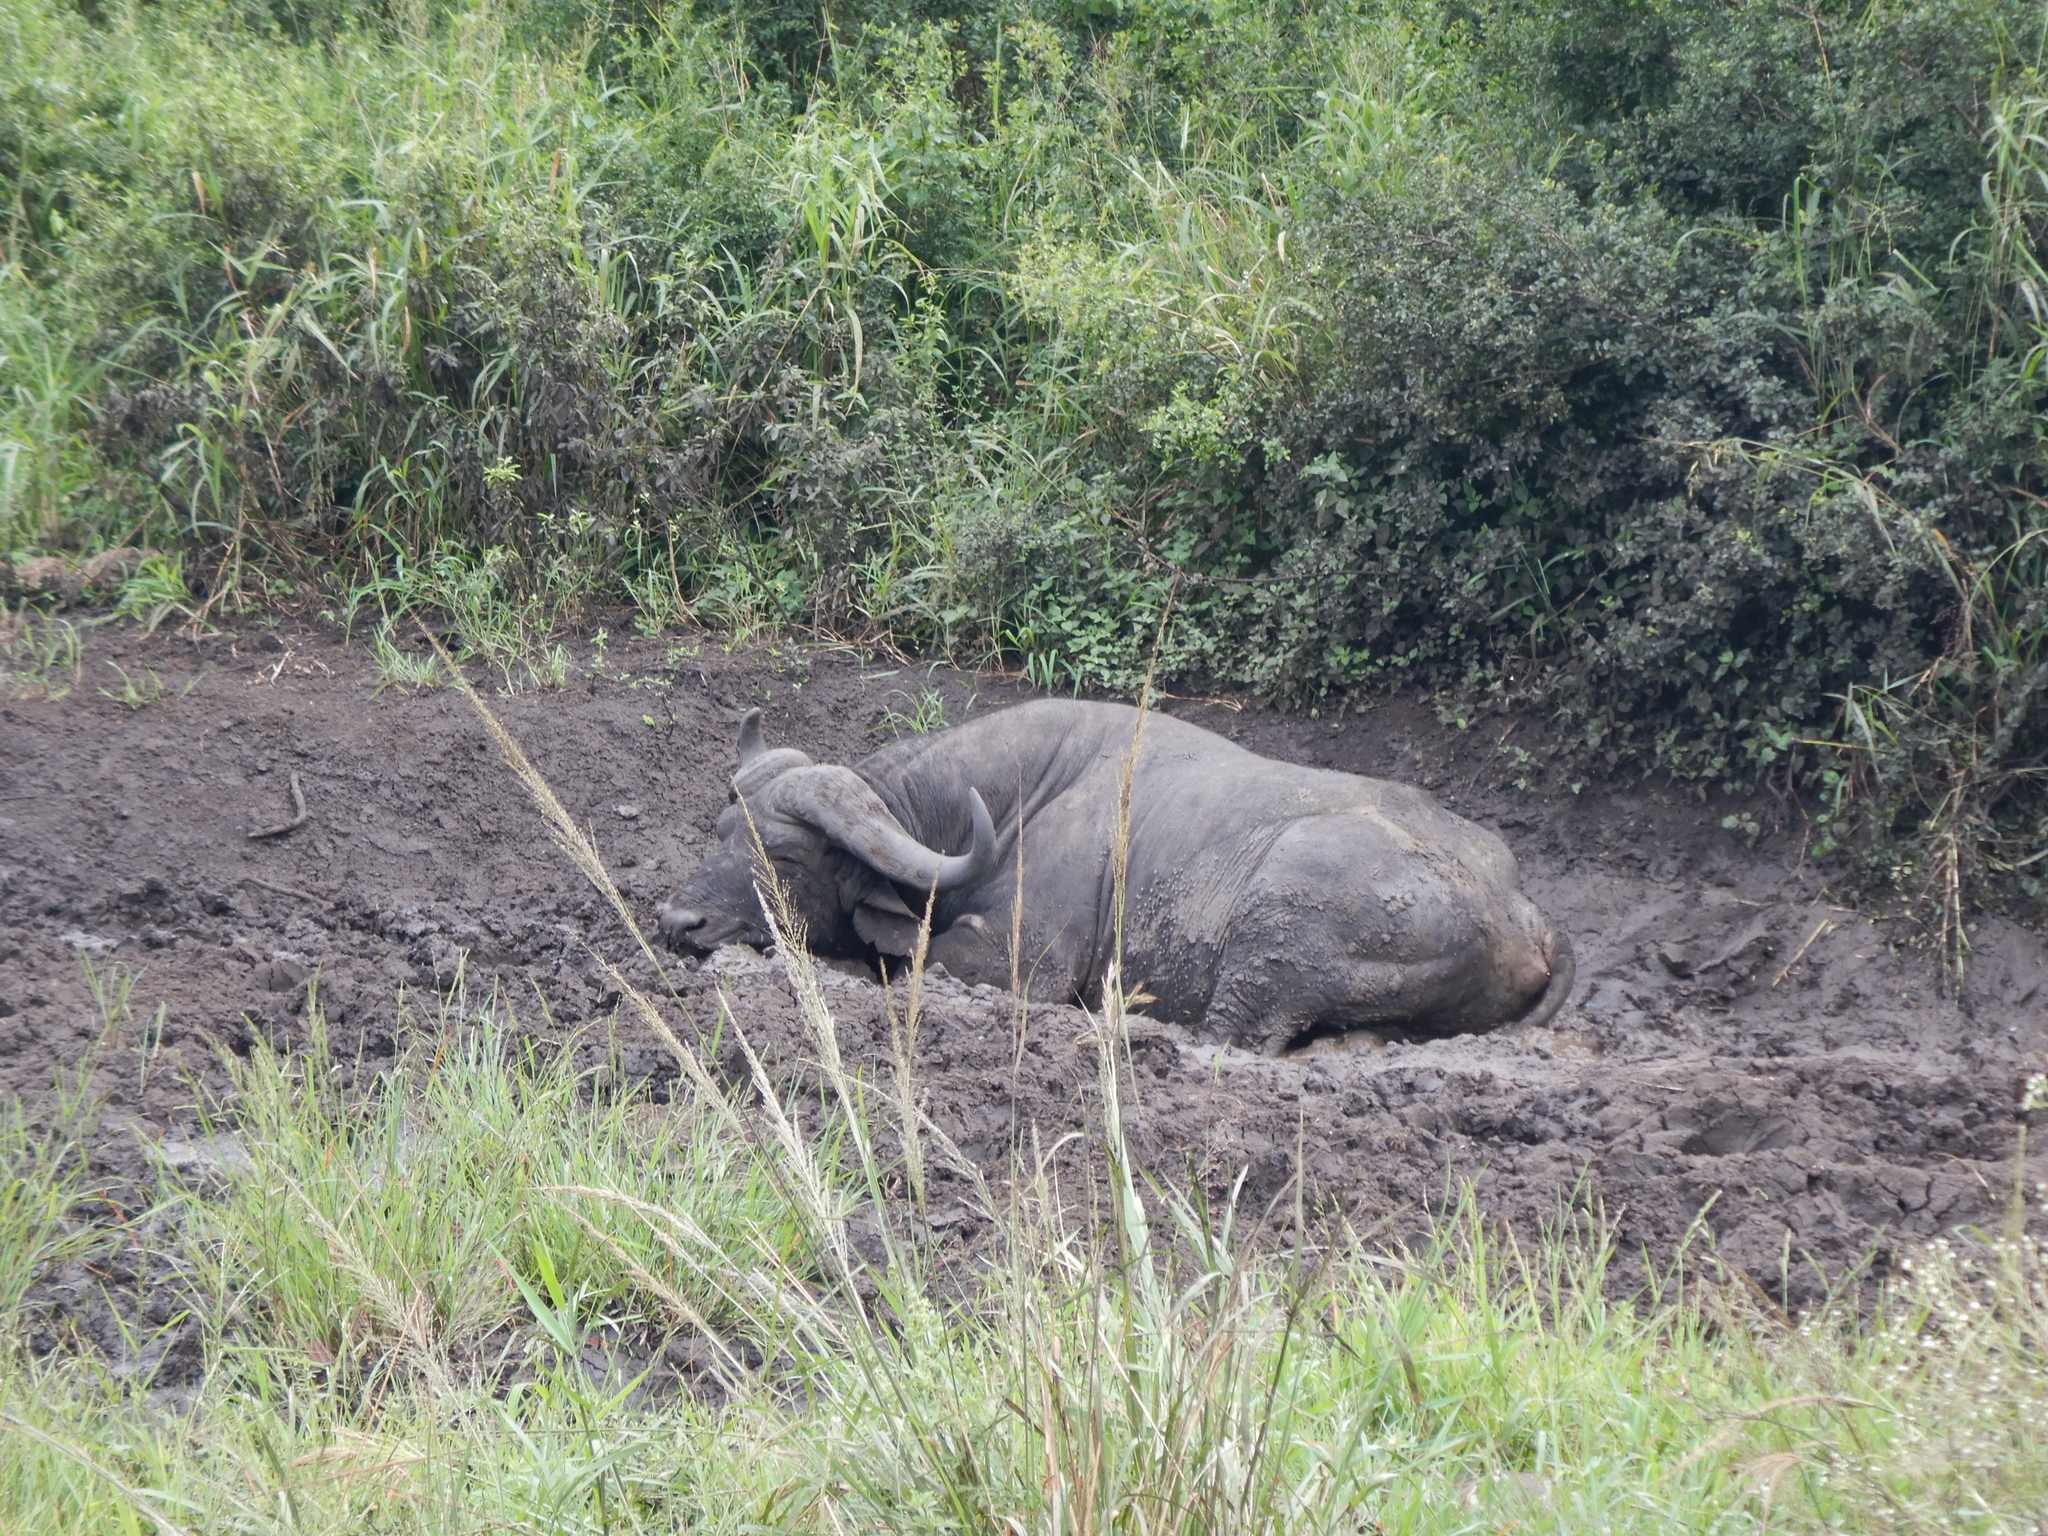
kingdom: Animalia
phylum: Chordata
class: Mammalia
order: Artiodactyla
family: Bovidae
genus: Syncerus
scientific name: Syncerus caffer
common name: African buffalo
